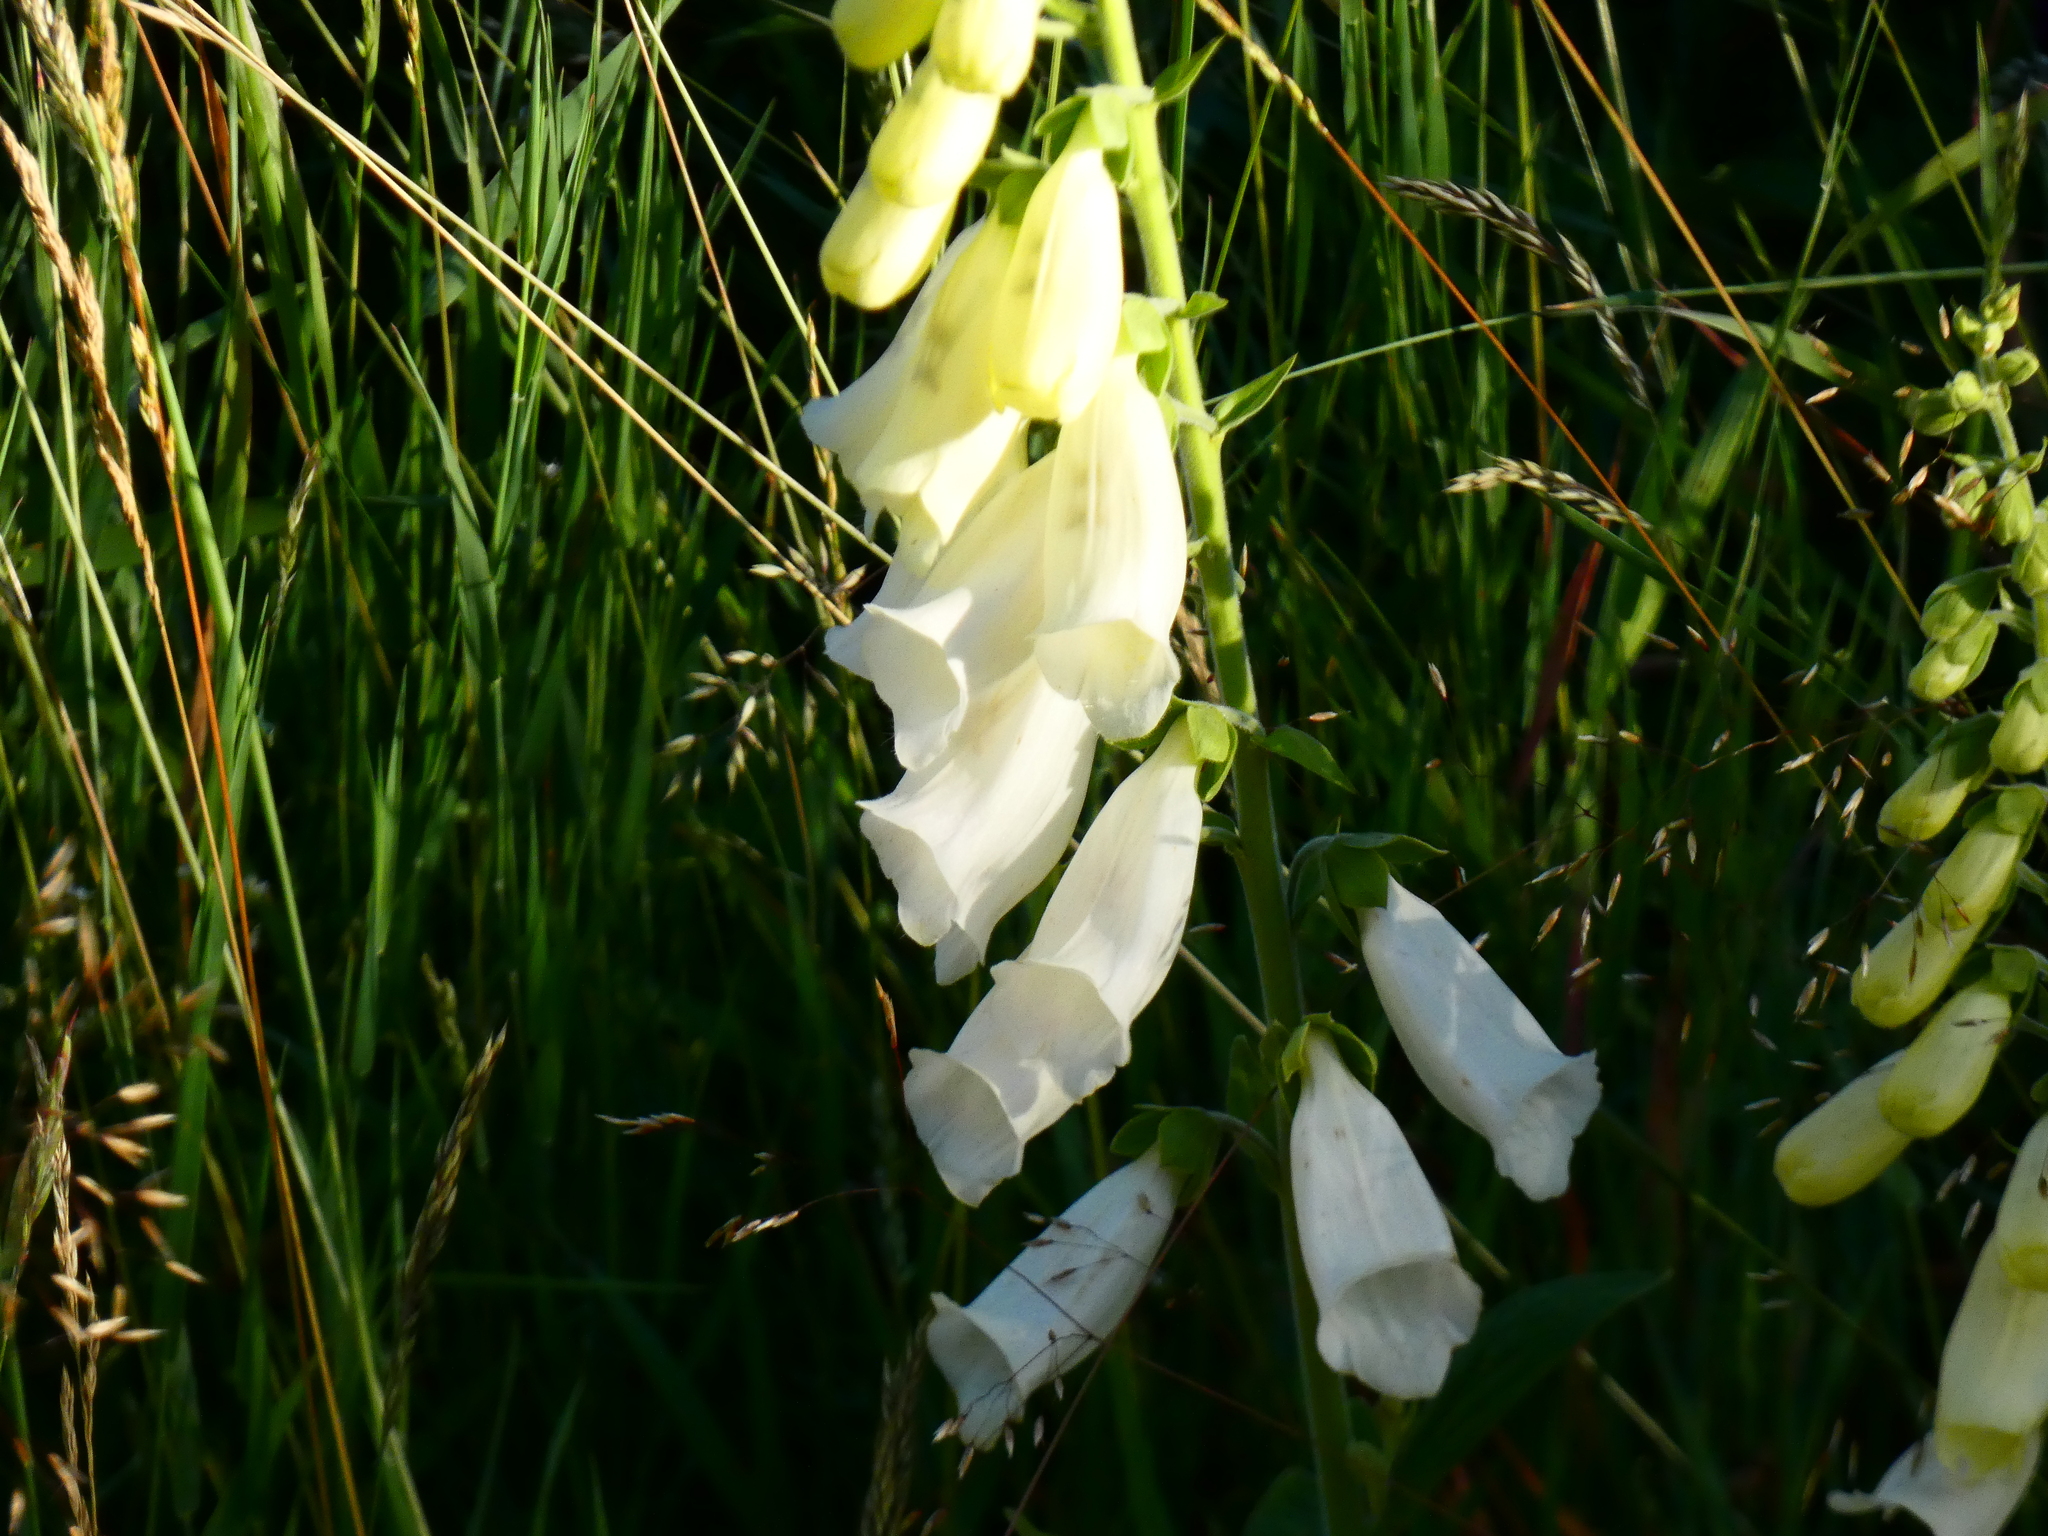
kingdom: Plantae
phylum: Tracheophyta
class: Magnoliopsida
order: Lamiales
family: Plantaginaceae
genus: Digitalis
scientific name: Digitalis purpurea
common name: Foxglove
